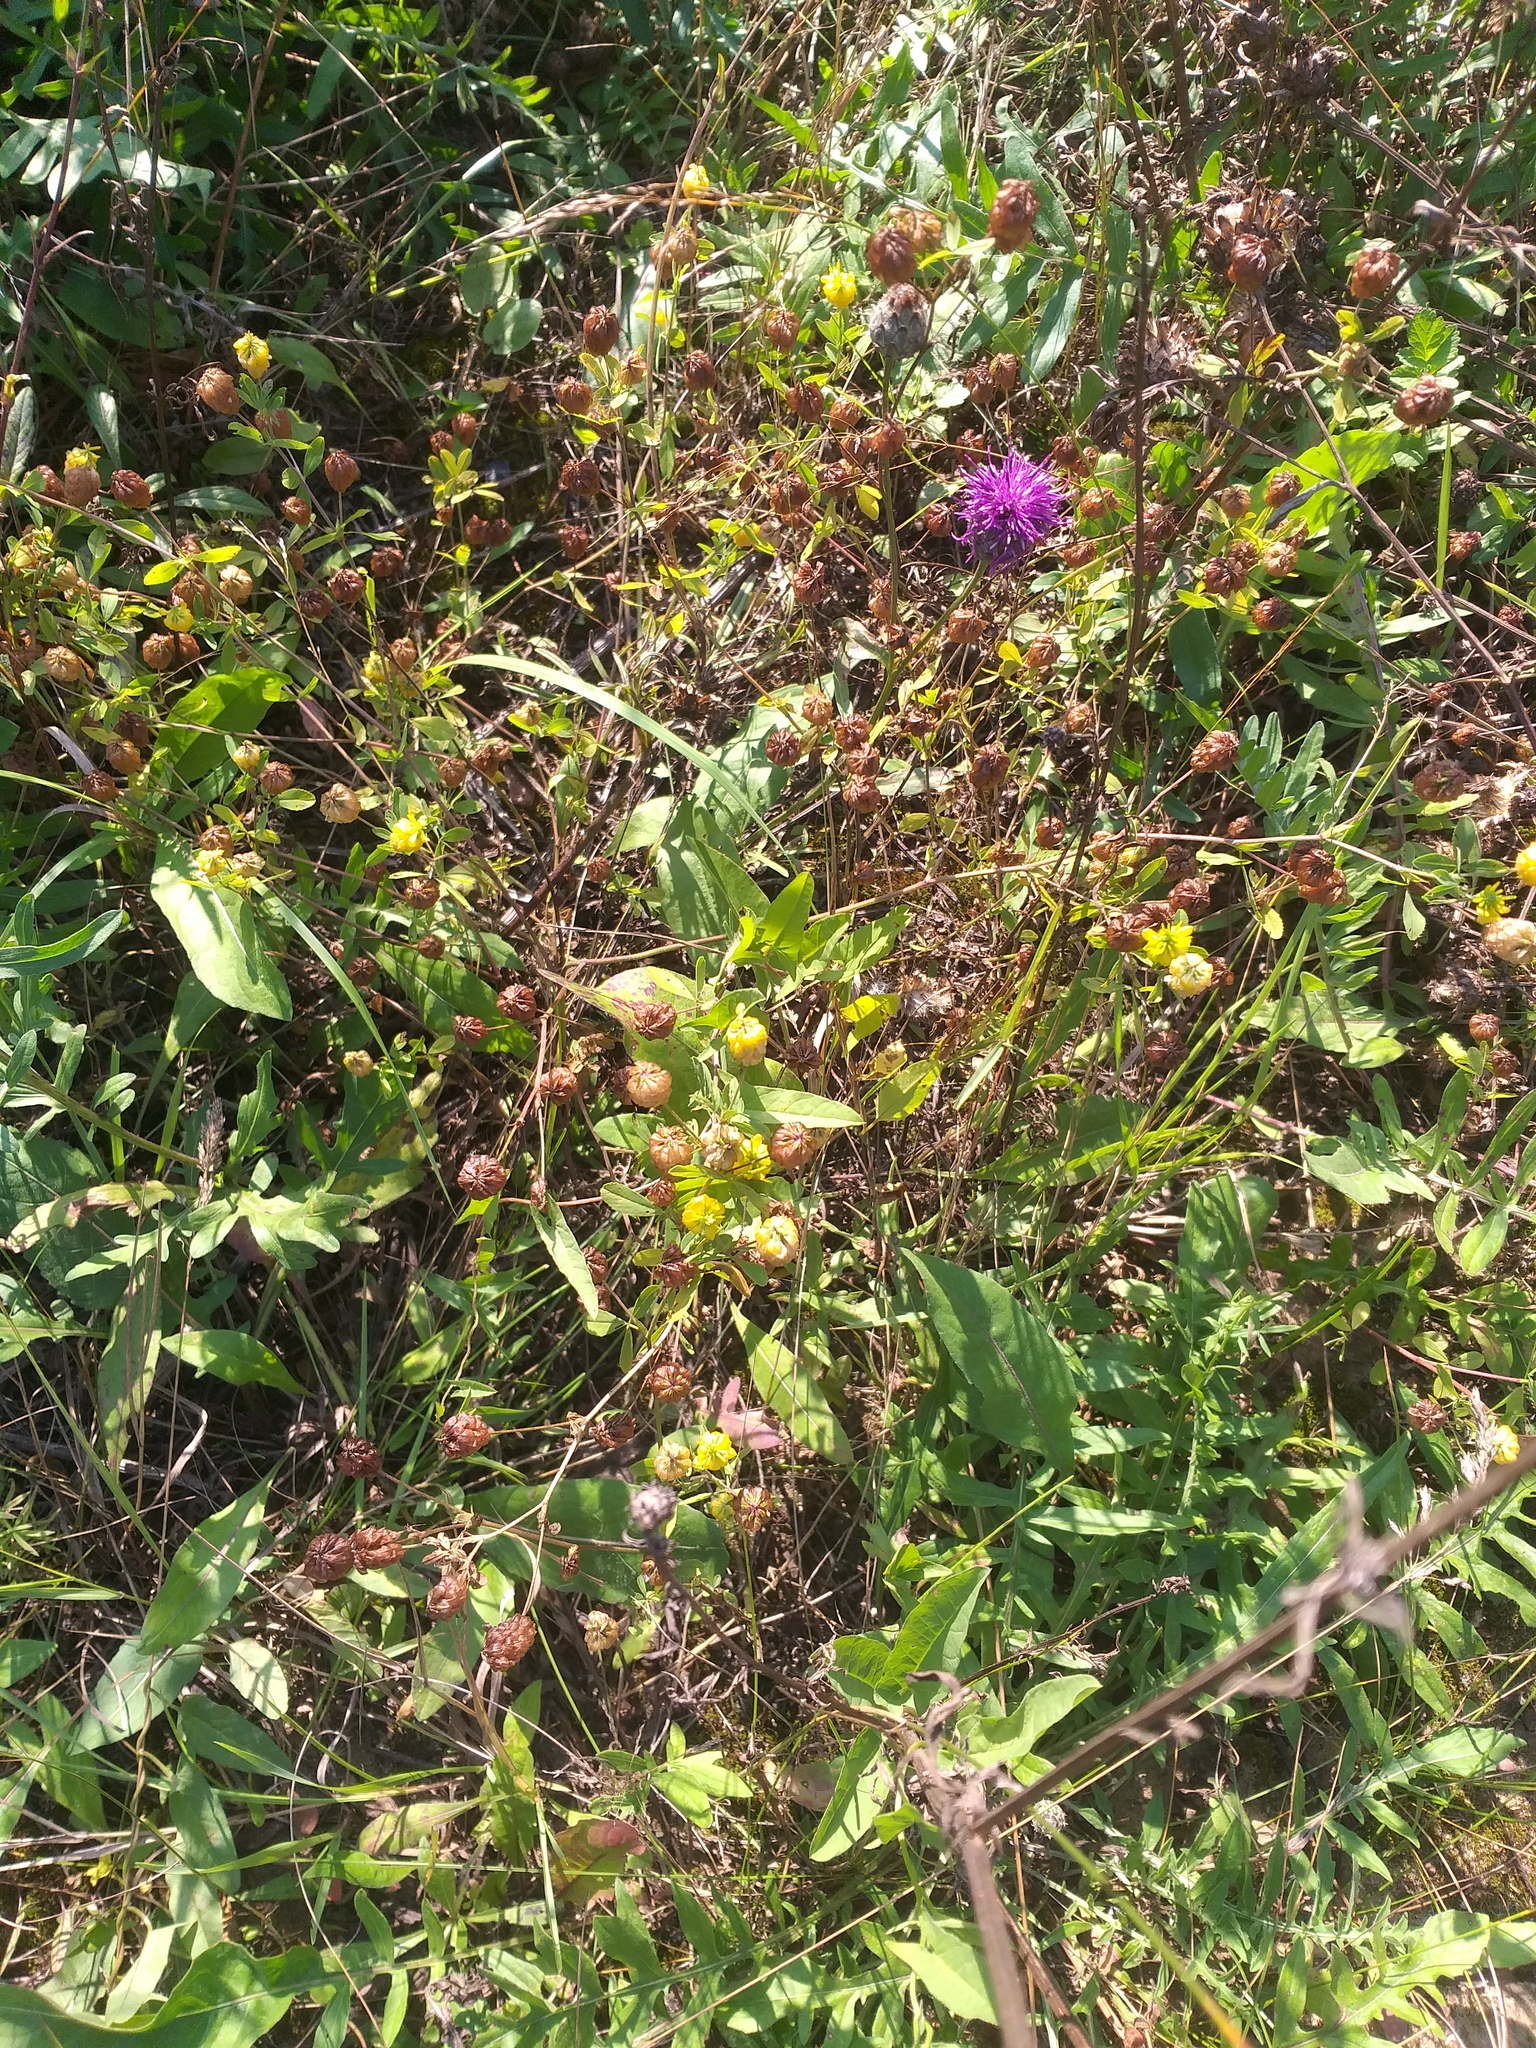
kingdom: Plantae
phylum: Tracheophyta
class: Magnoliopsida
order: Fabales
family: Fabaceae
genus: Trifolium
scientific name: Trifolium aureum
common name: Golden clover
